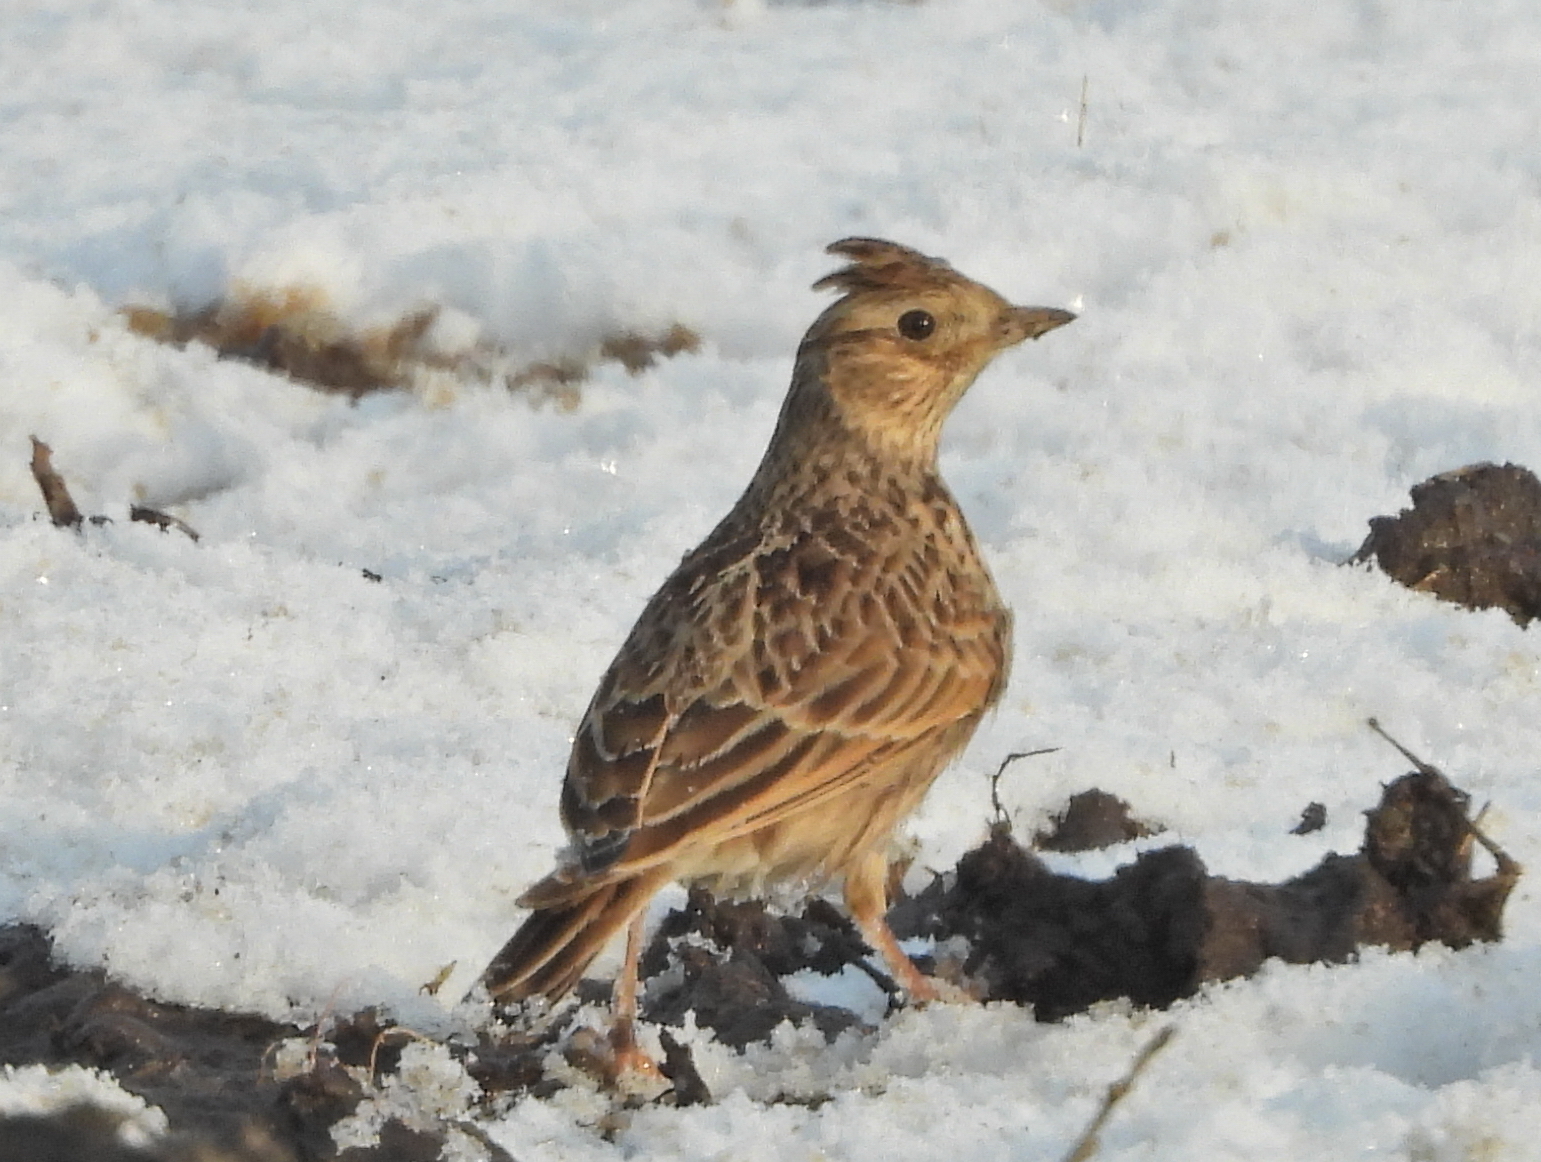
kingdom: Animalia
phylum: Chordata
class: Aves
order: Passeriformes
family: Alaudidae
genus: Alauda
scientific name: Alauda arvensis
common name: Eurasian skylark
